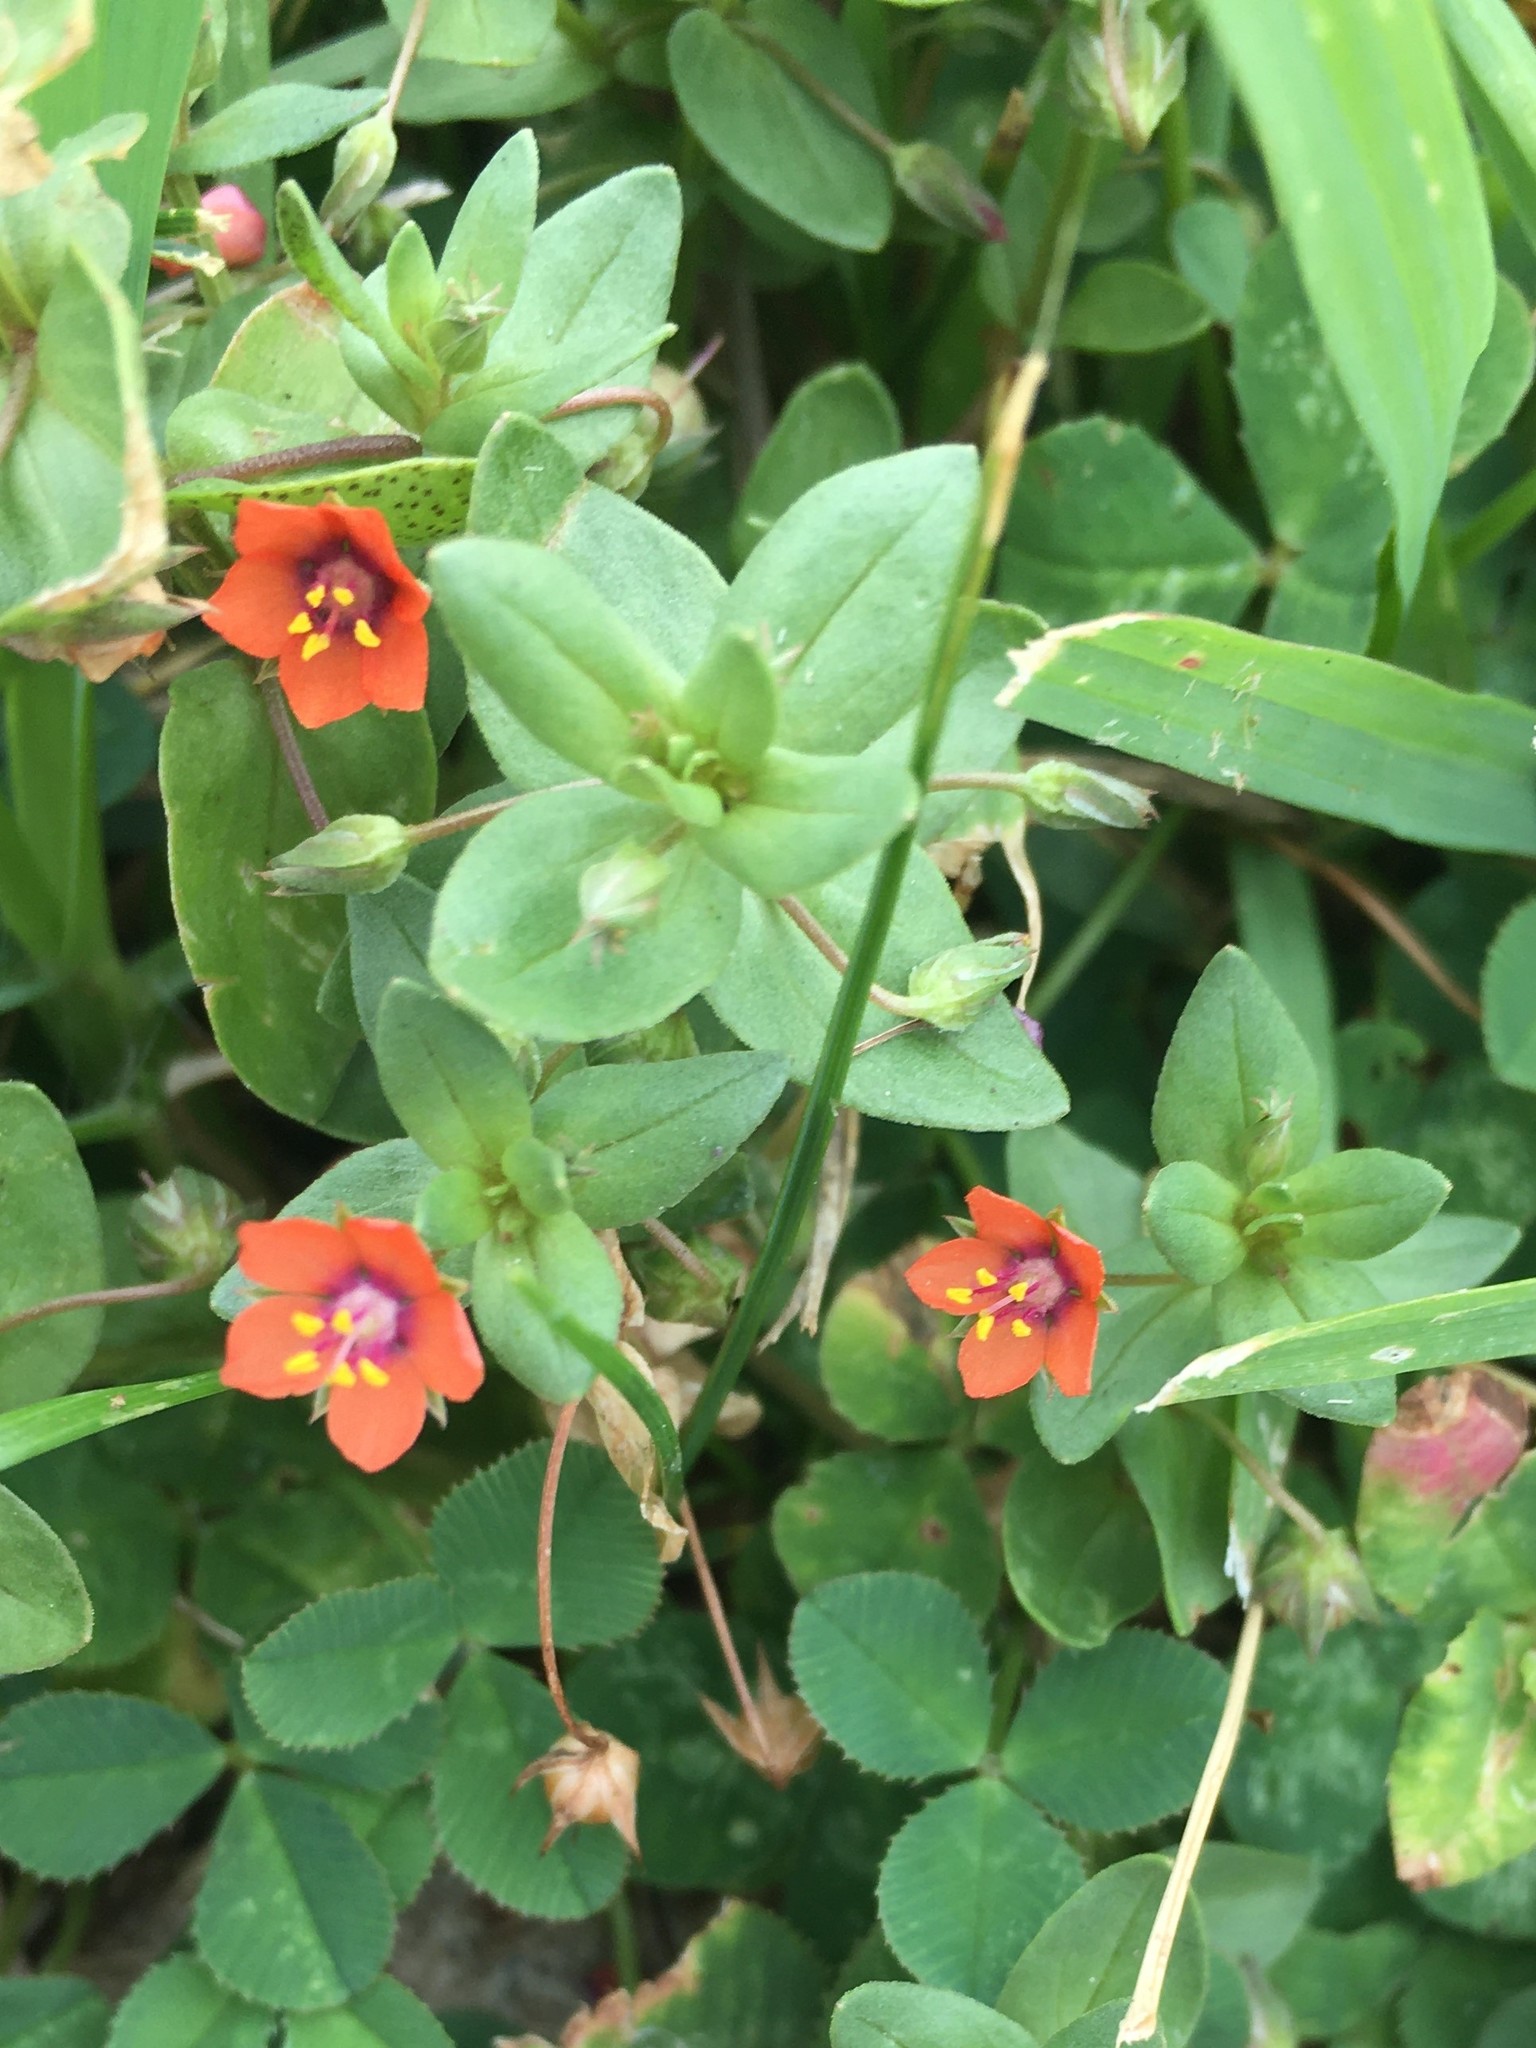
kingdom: Plantae
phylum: Tracheophyta
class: Magnoliopsida
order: Ericales
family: Primulaceae
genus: Lysimachia
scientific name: Lysimachia arvensis
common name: Scarlet pimpernel
